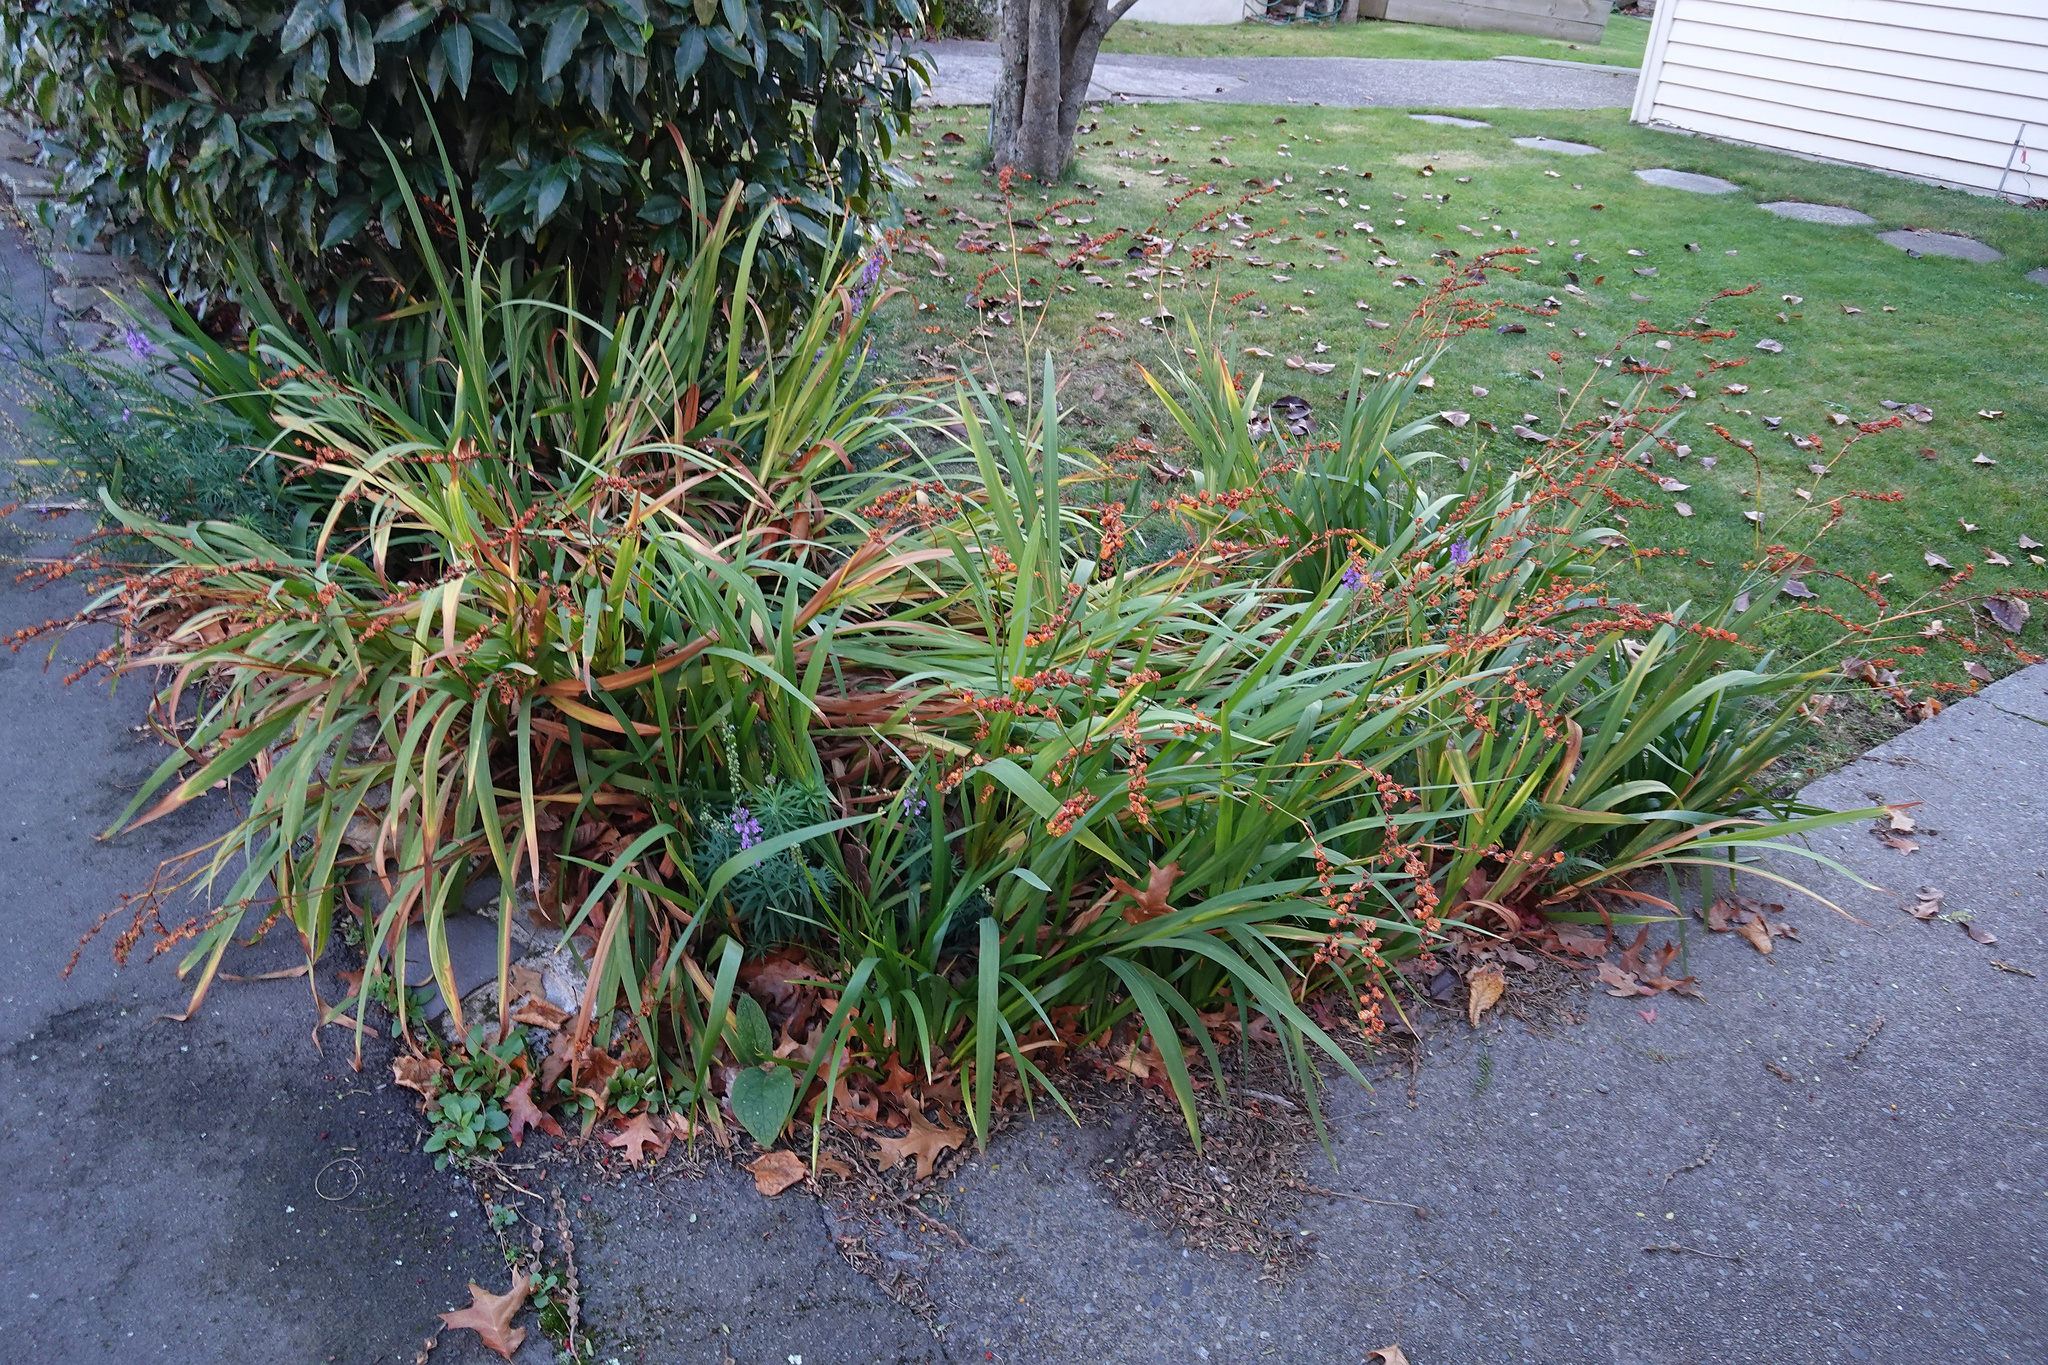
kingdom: Plantae
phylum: Tracheophyta
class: Liliopsida
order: Asparagales
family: Iridaceae
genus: Crocosmia
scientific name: Crocosmia crocosmiiflora
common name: Montbretia
